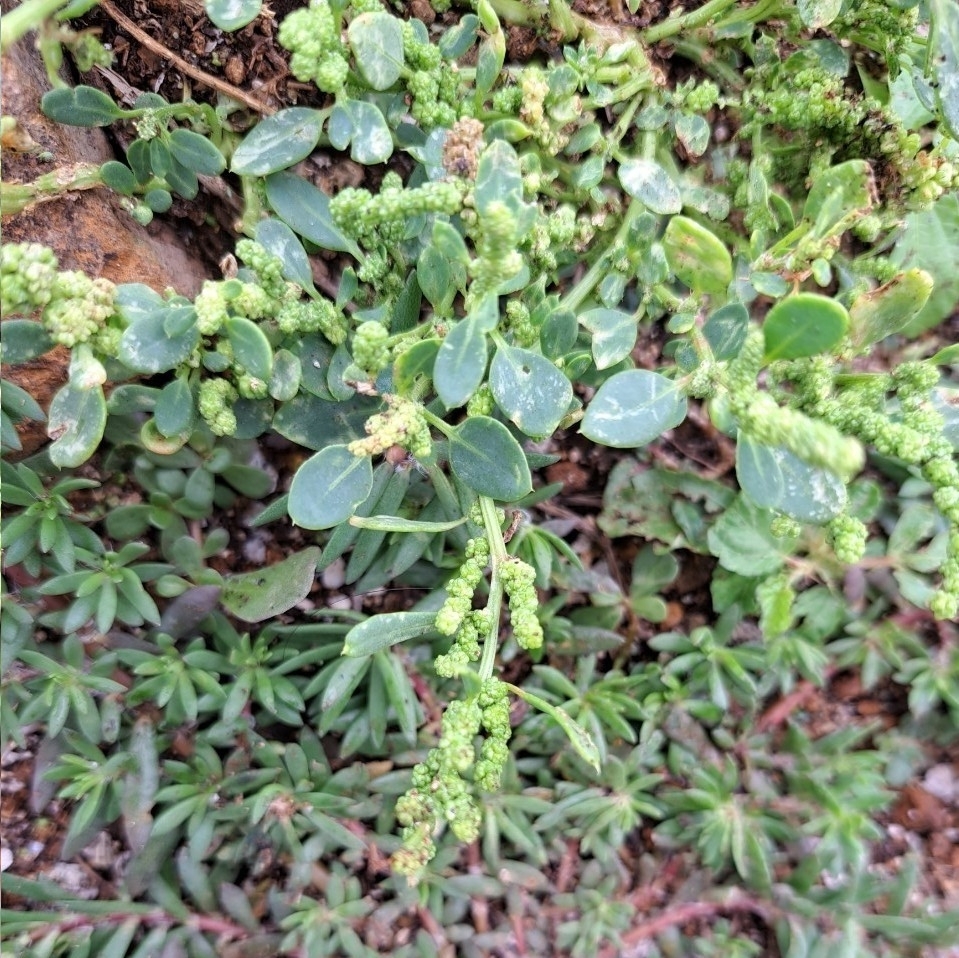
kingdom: Plantae
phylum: Tracheophyta
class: Magnoliopsida
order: Caryophyllales
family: Amaranthaceae
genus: Chenopodium
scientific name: Chenopodium acuminatum
